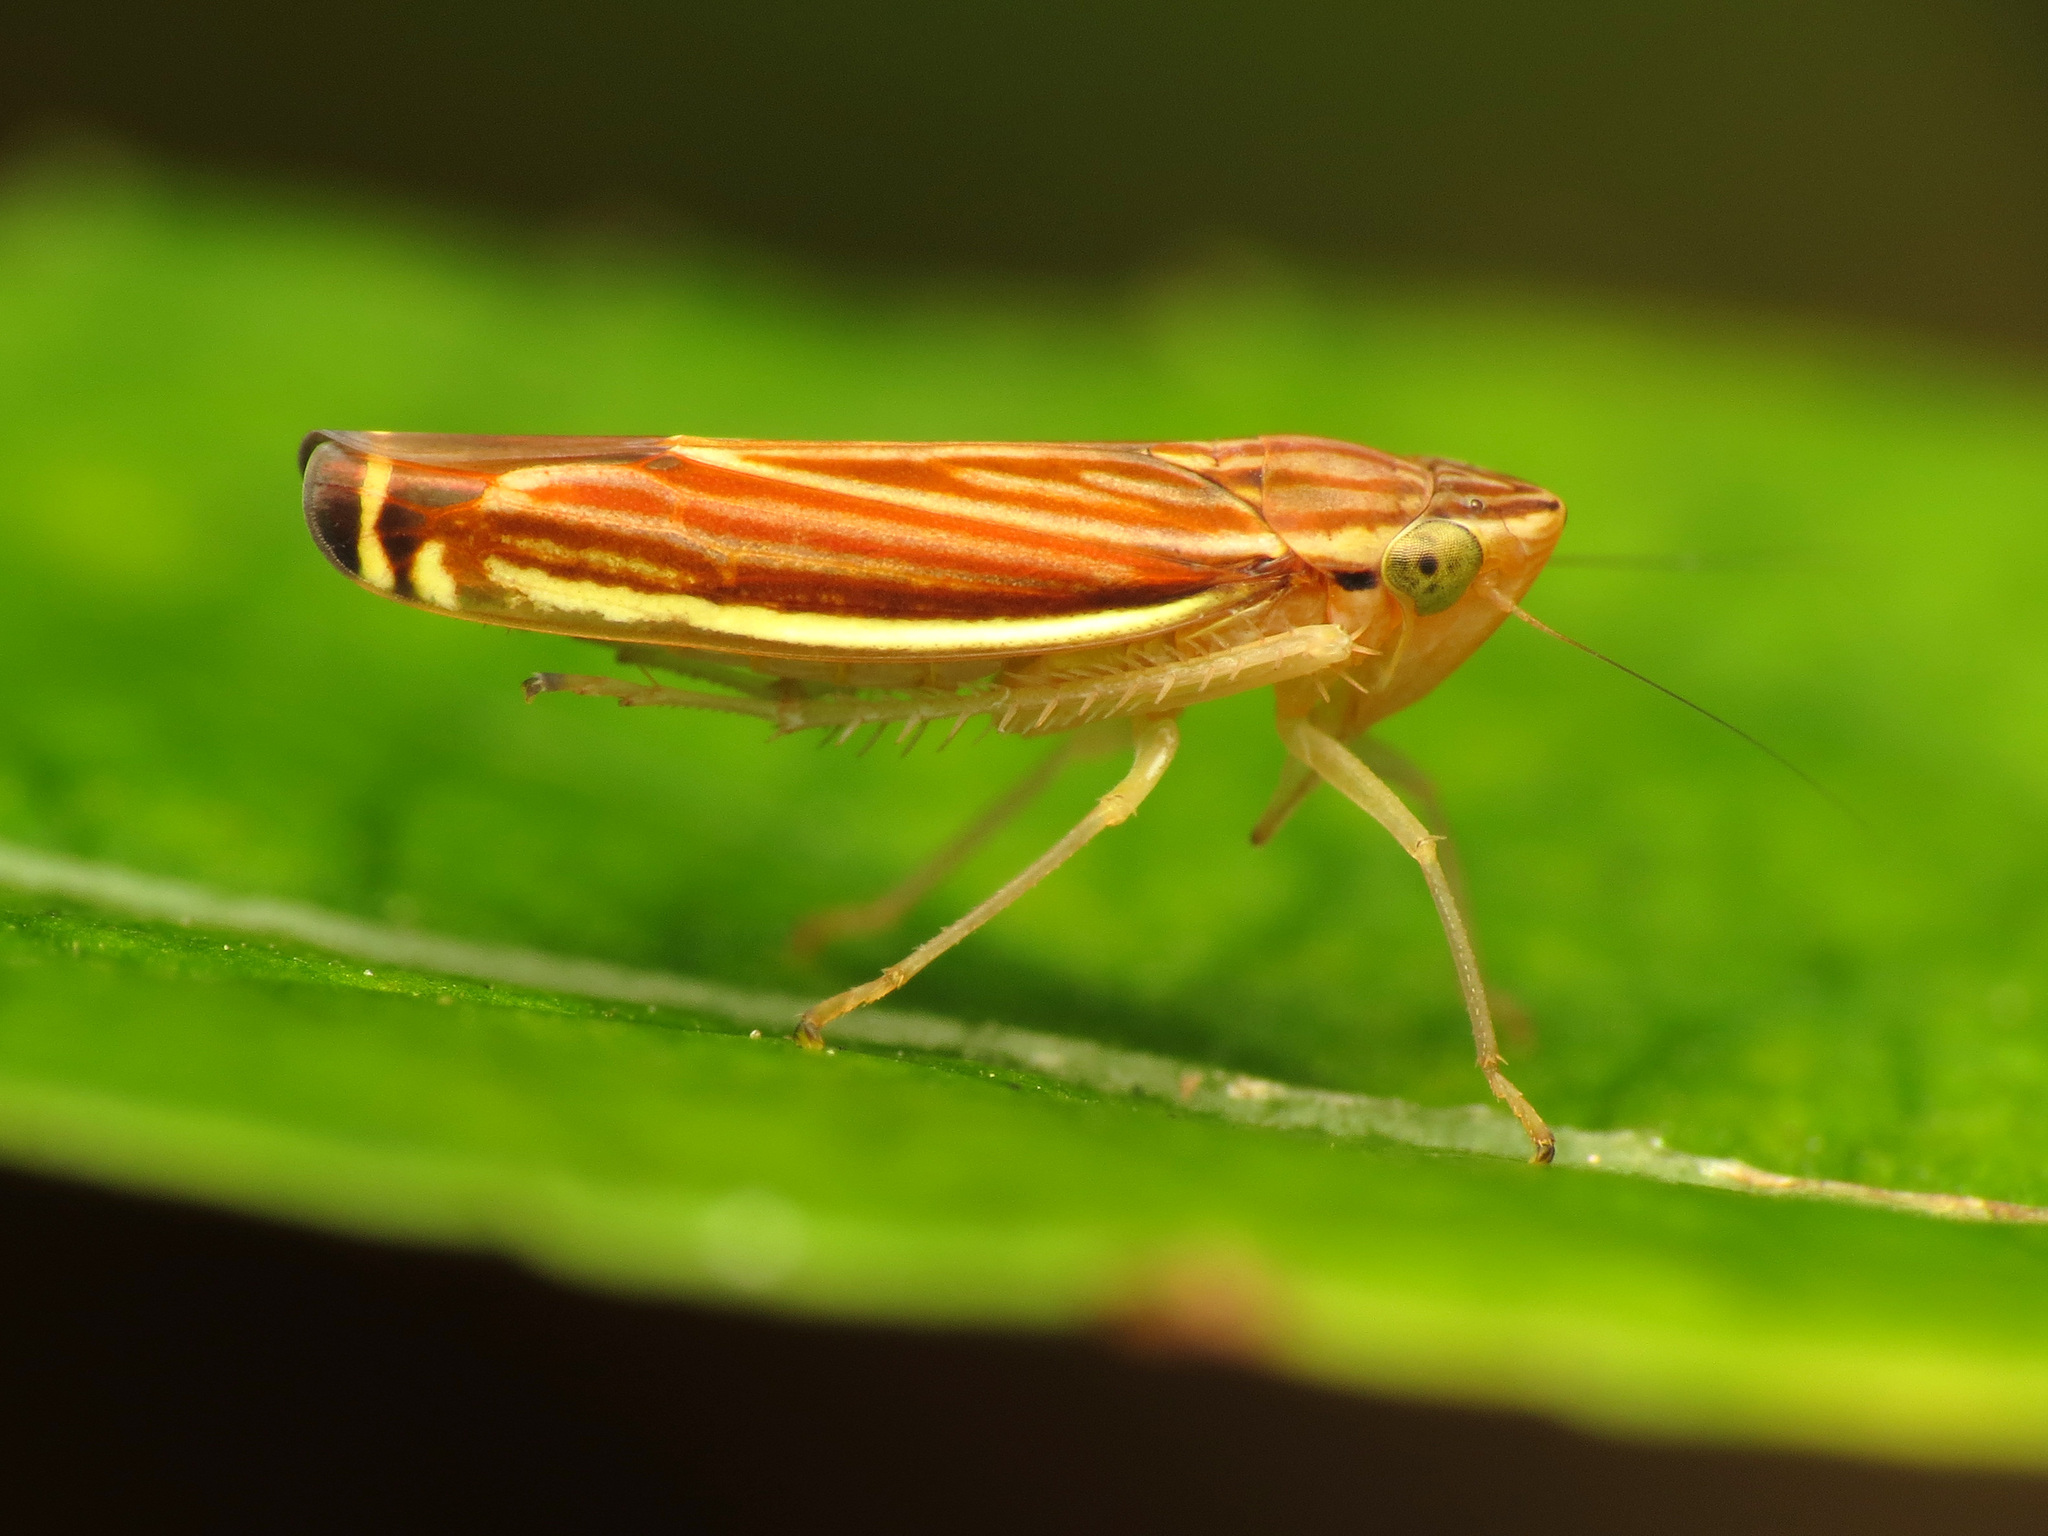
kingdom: Animalia
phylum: Arthropoda
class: Insecta
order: Hemiptera
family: Cicadellidae
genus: Sibovia
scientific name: Sibovia occatoria
